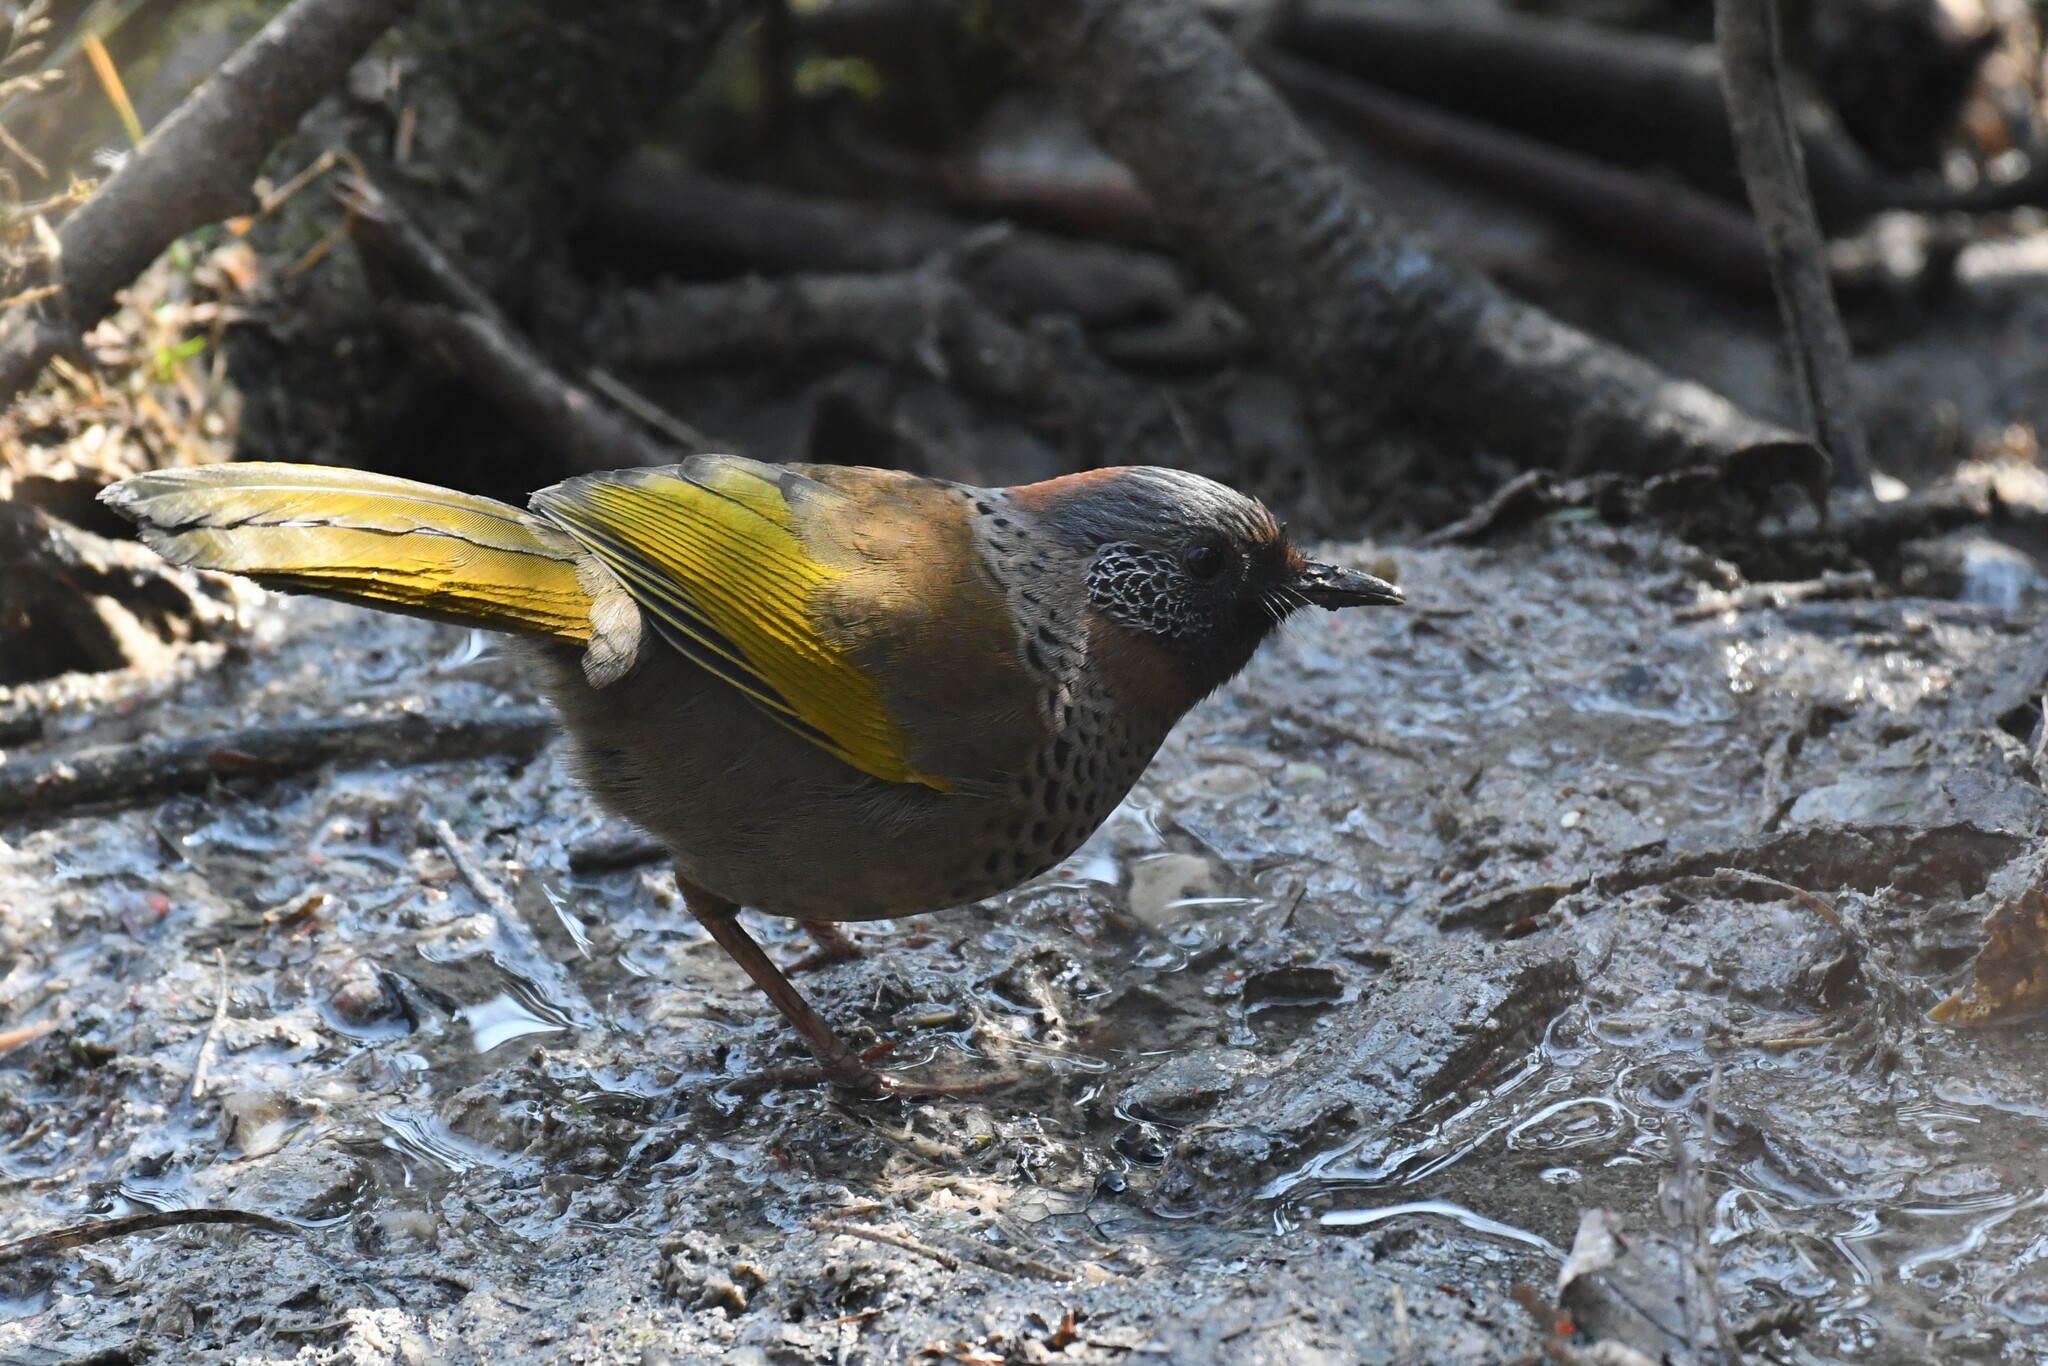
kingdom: Animalia
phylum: Chordata
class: Aves
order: Passeriformes
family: Leiothrichidae
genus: Trochalopteron
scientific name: Trochalopteron erythrocephalum
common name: Chestnut-crowned laughingthrush
